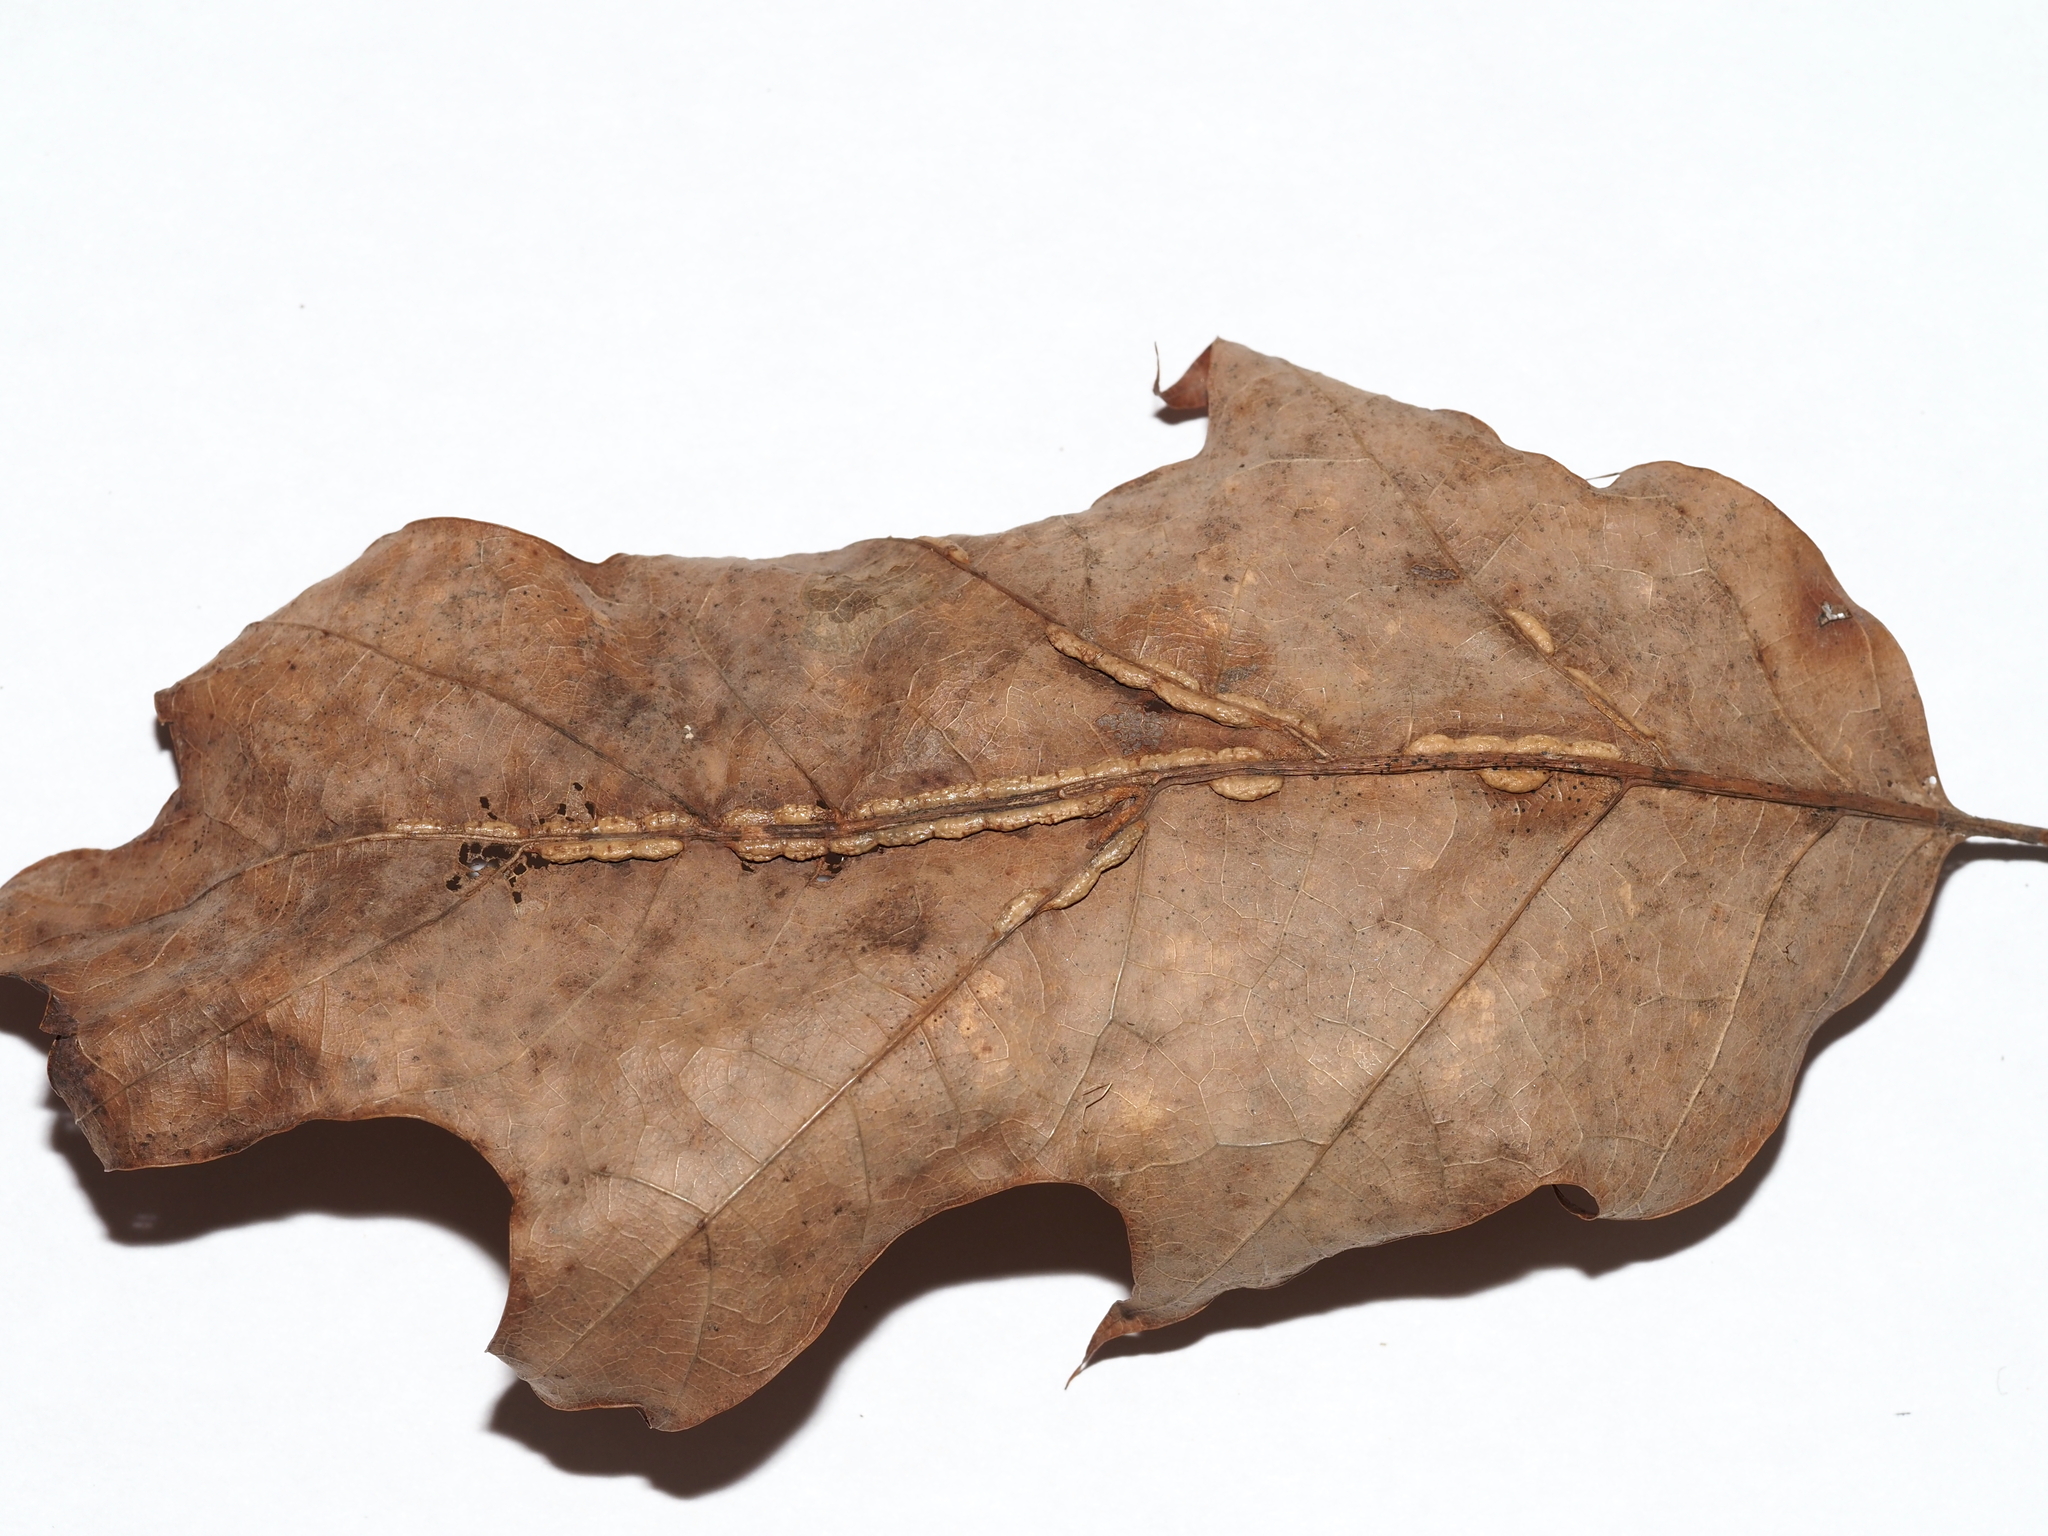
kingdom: Animalia
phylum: Arthropoda
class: Insecta
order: Diptera
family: Cecidomyiidae
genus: Macrodiplosis
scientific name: Macrodiplosis q-orucum
